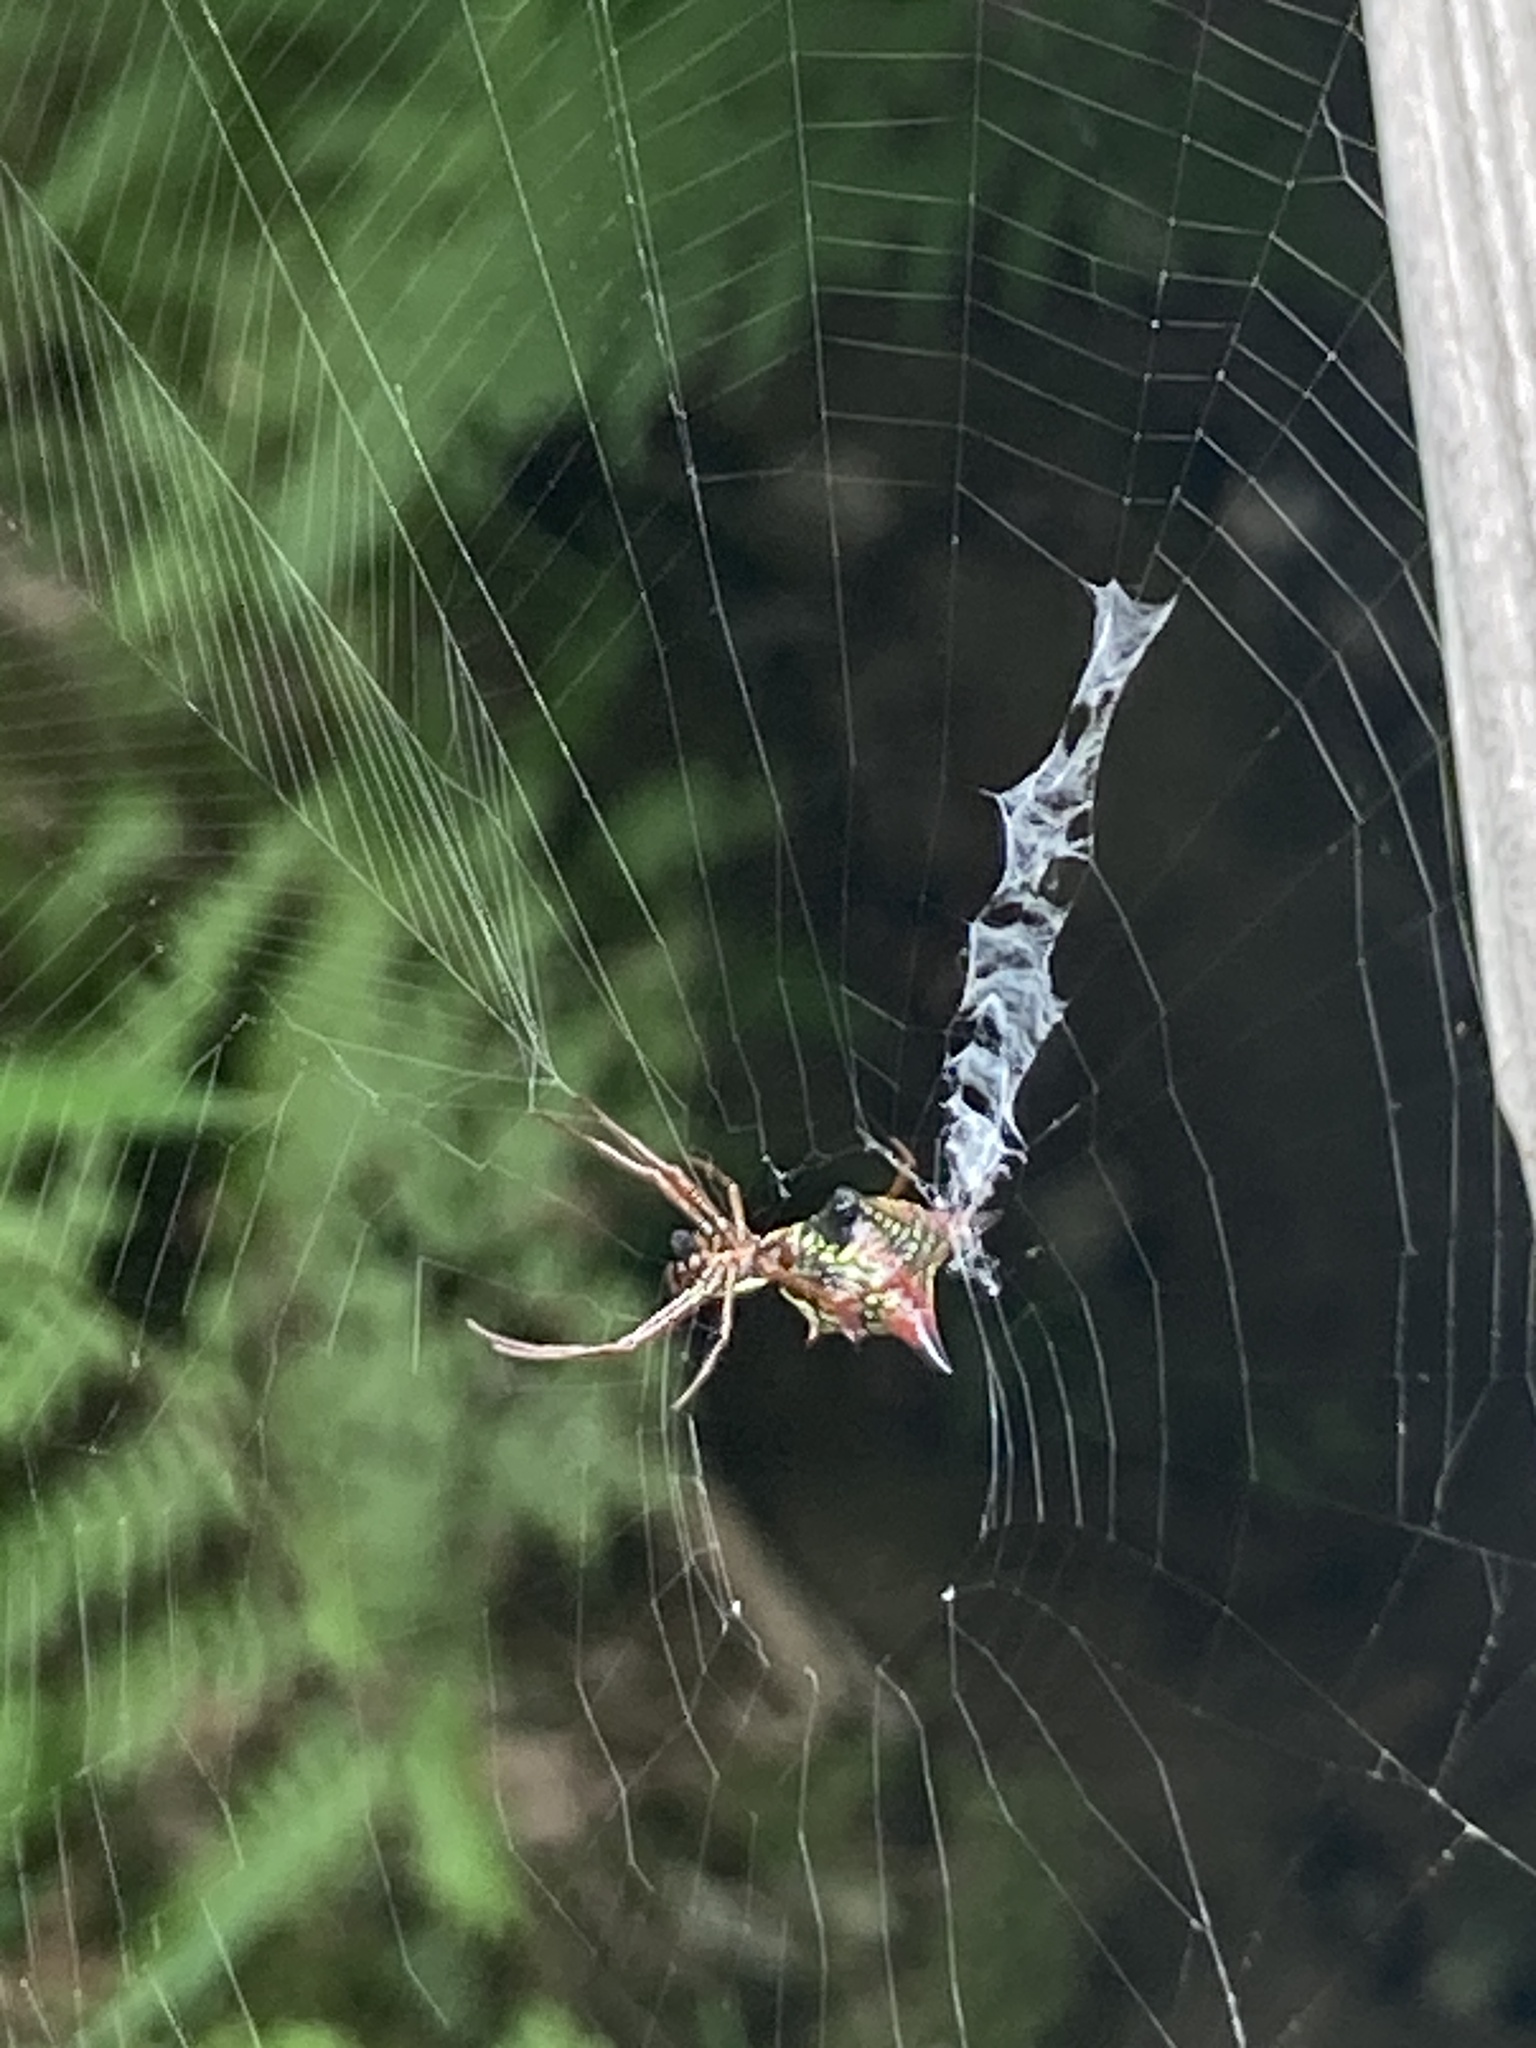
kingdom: Animalia
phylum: Arthropoda
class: Arachnida
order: Araneae
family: Araneidae
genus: Micrathena
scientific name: Micrathena sagittata
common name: Orb weavers
